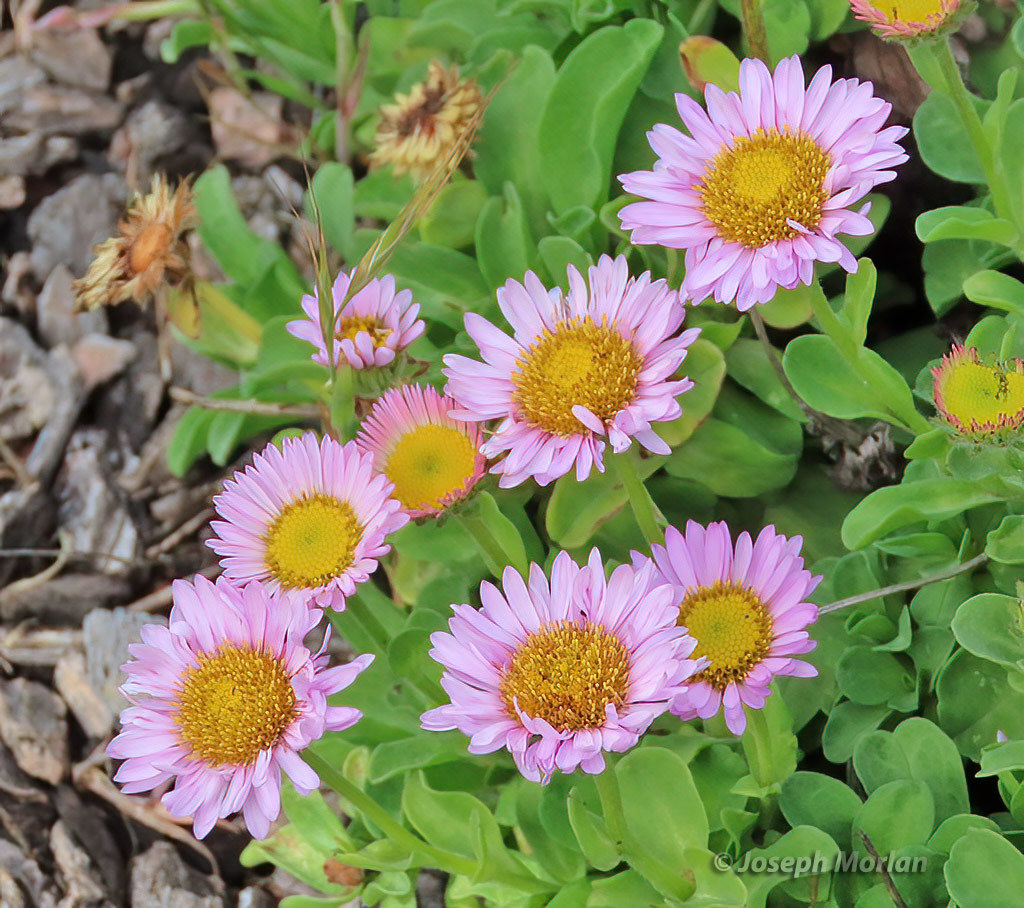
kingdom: Plantae
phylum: Tracheophyta
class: Magnoliopsida
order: Asterales
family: Asteraceae
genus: Erigeron
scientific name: Erigeron glaucus
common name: Seaside daisy
